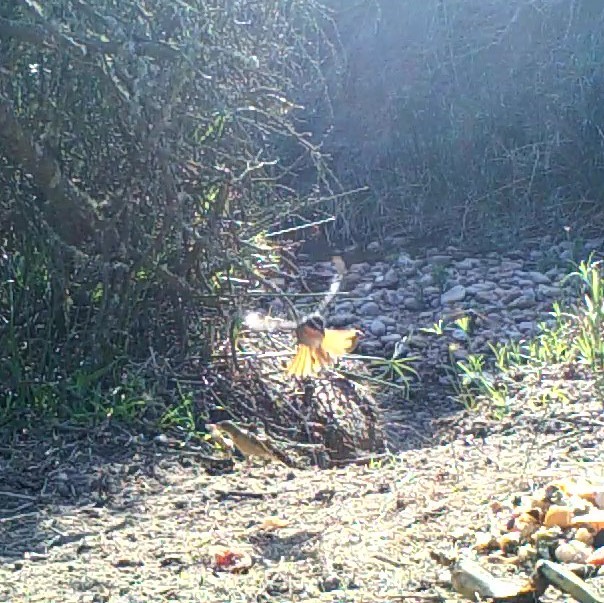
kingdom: Animalia
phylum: Chordata
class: Aves
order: Passeriformes
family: Muscicapidae
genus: Cossypha
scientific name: Cossypha caffra
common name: Cape robin-chat
